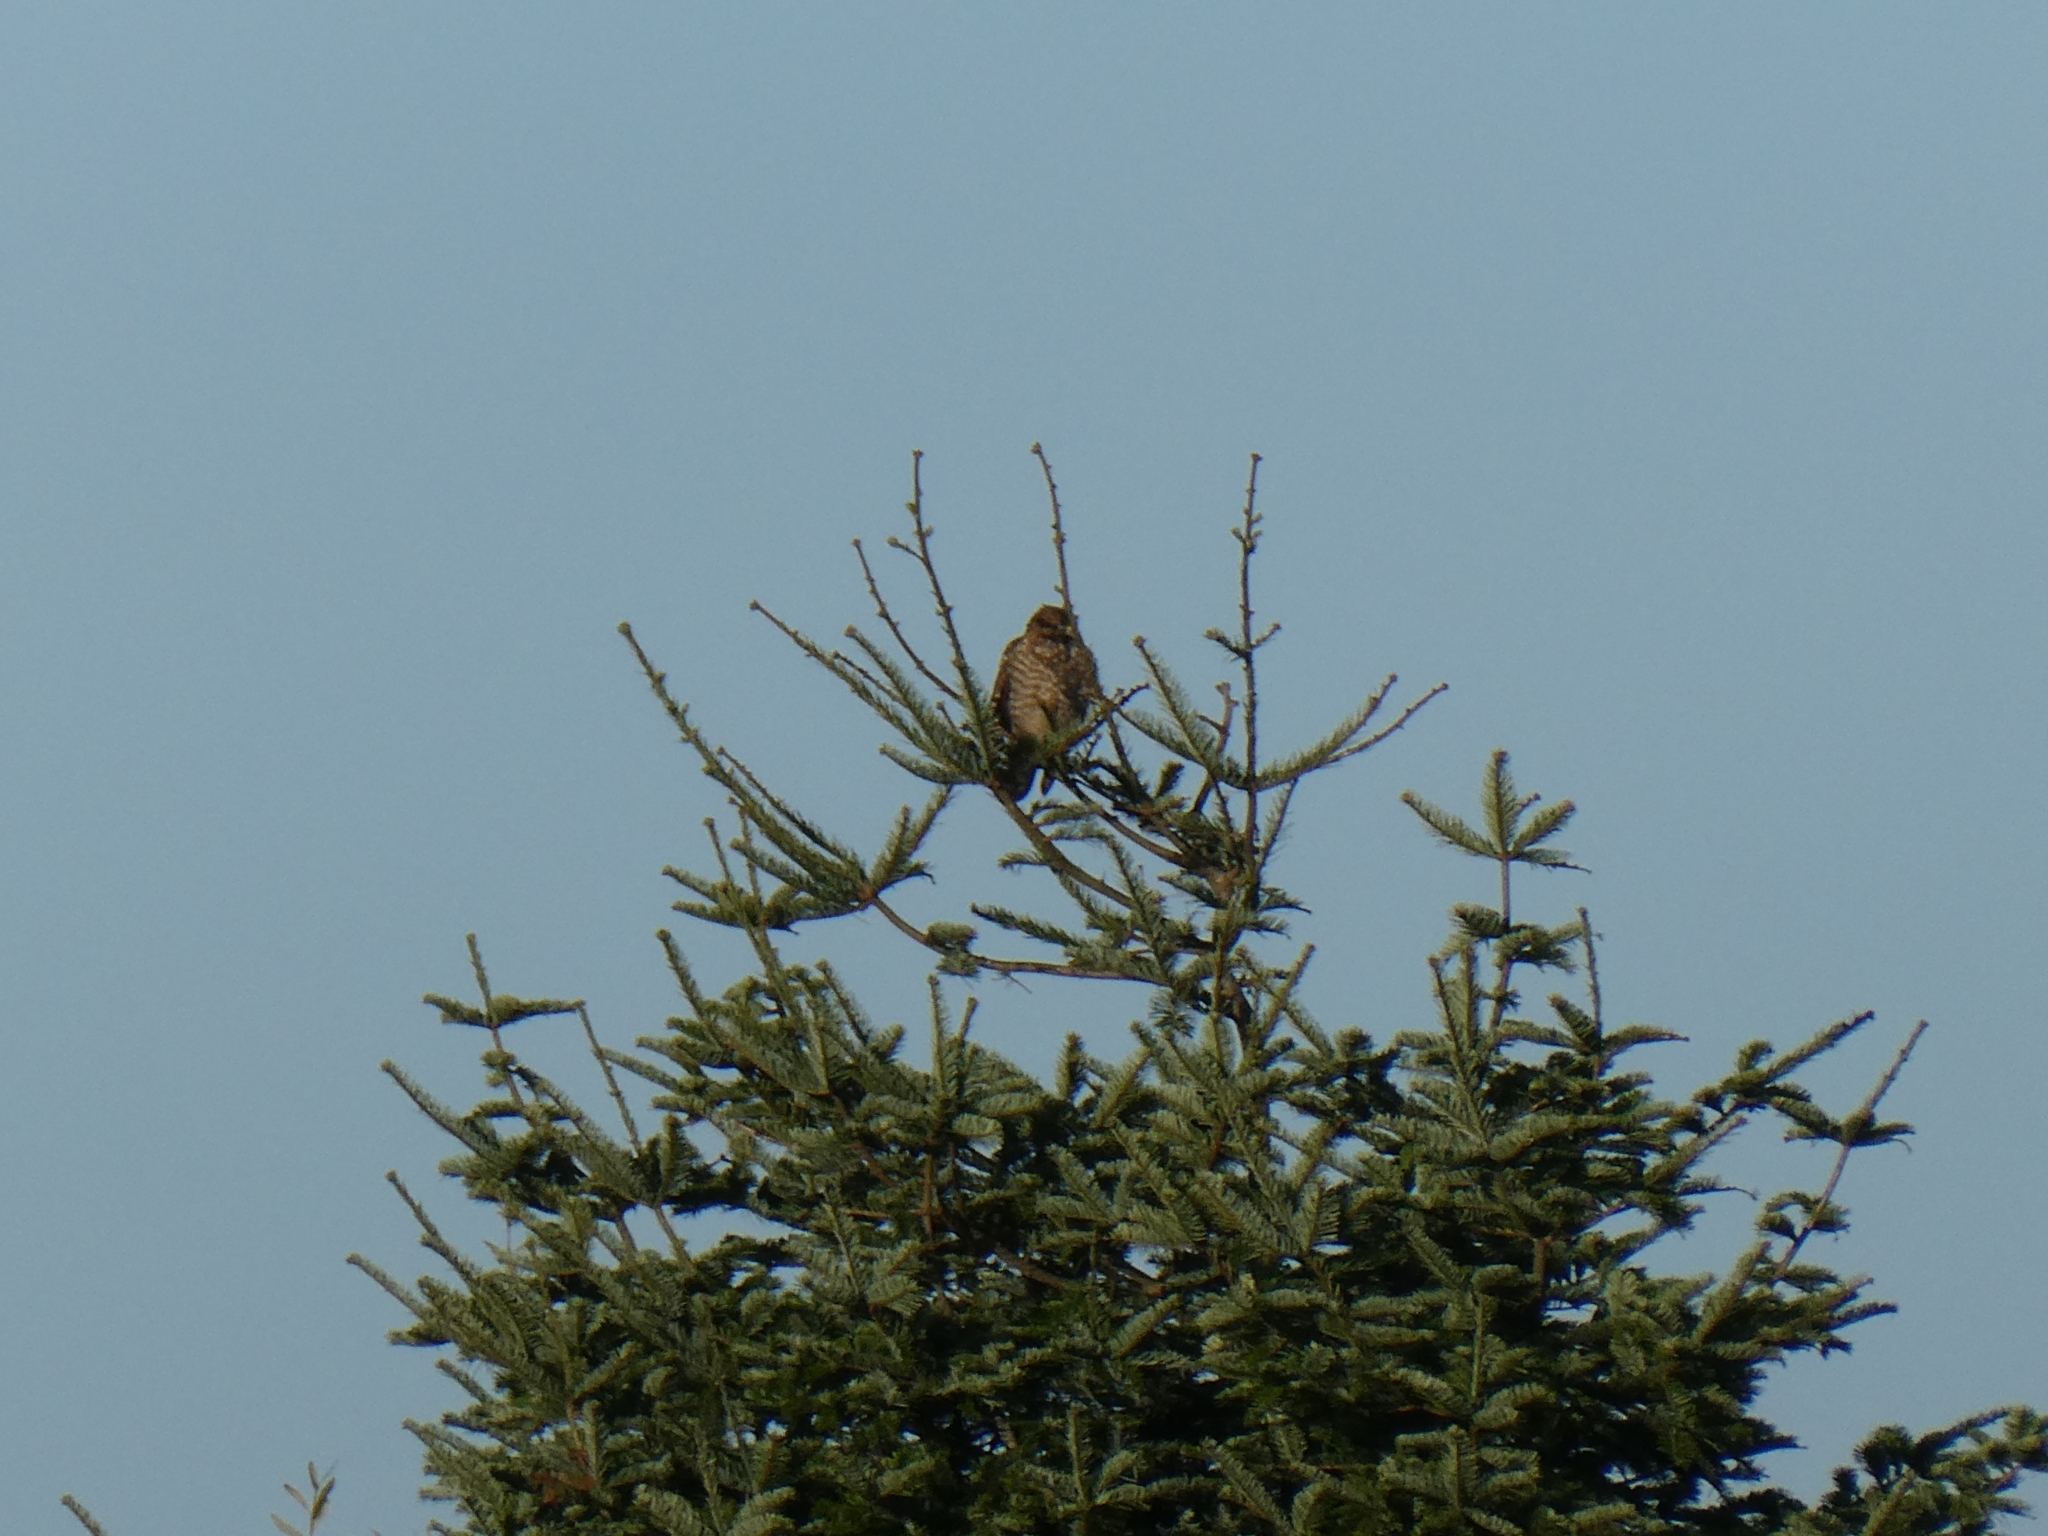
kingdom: Animalia
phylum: Chordata
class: Aves
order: Accipitriformes
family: Accipitridae
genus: Buteo
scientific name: Buteo lineatus
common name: Red-shouldered hawk
